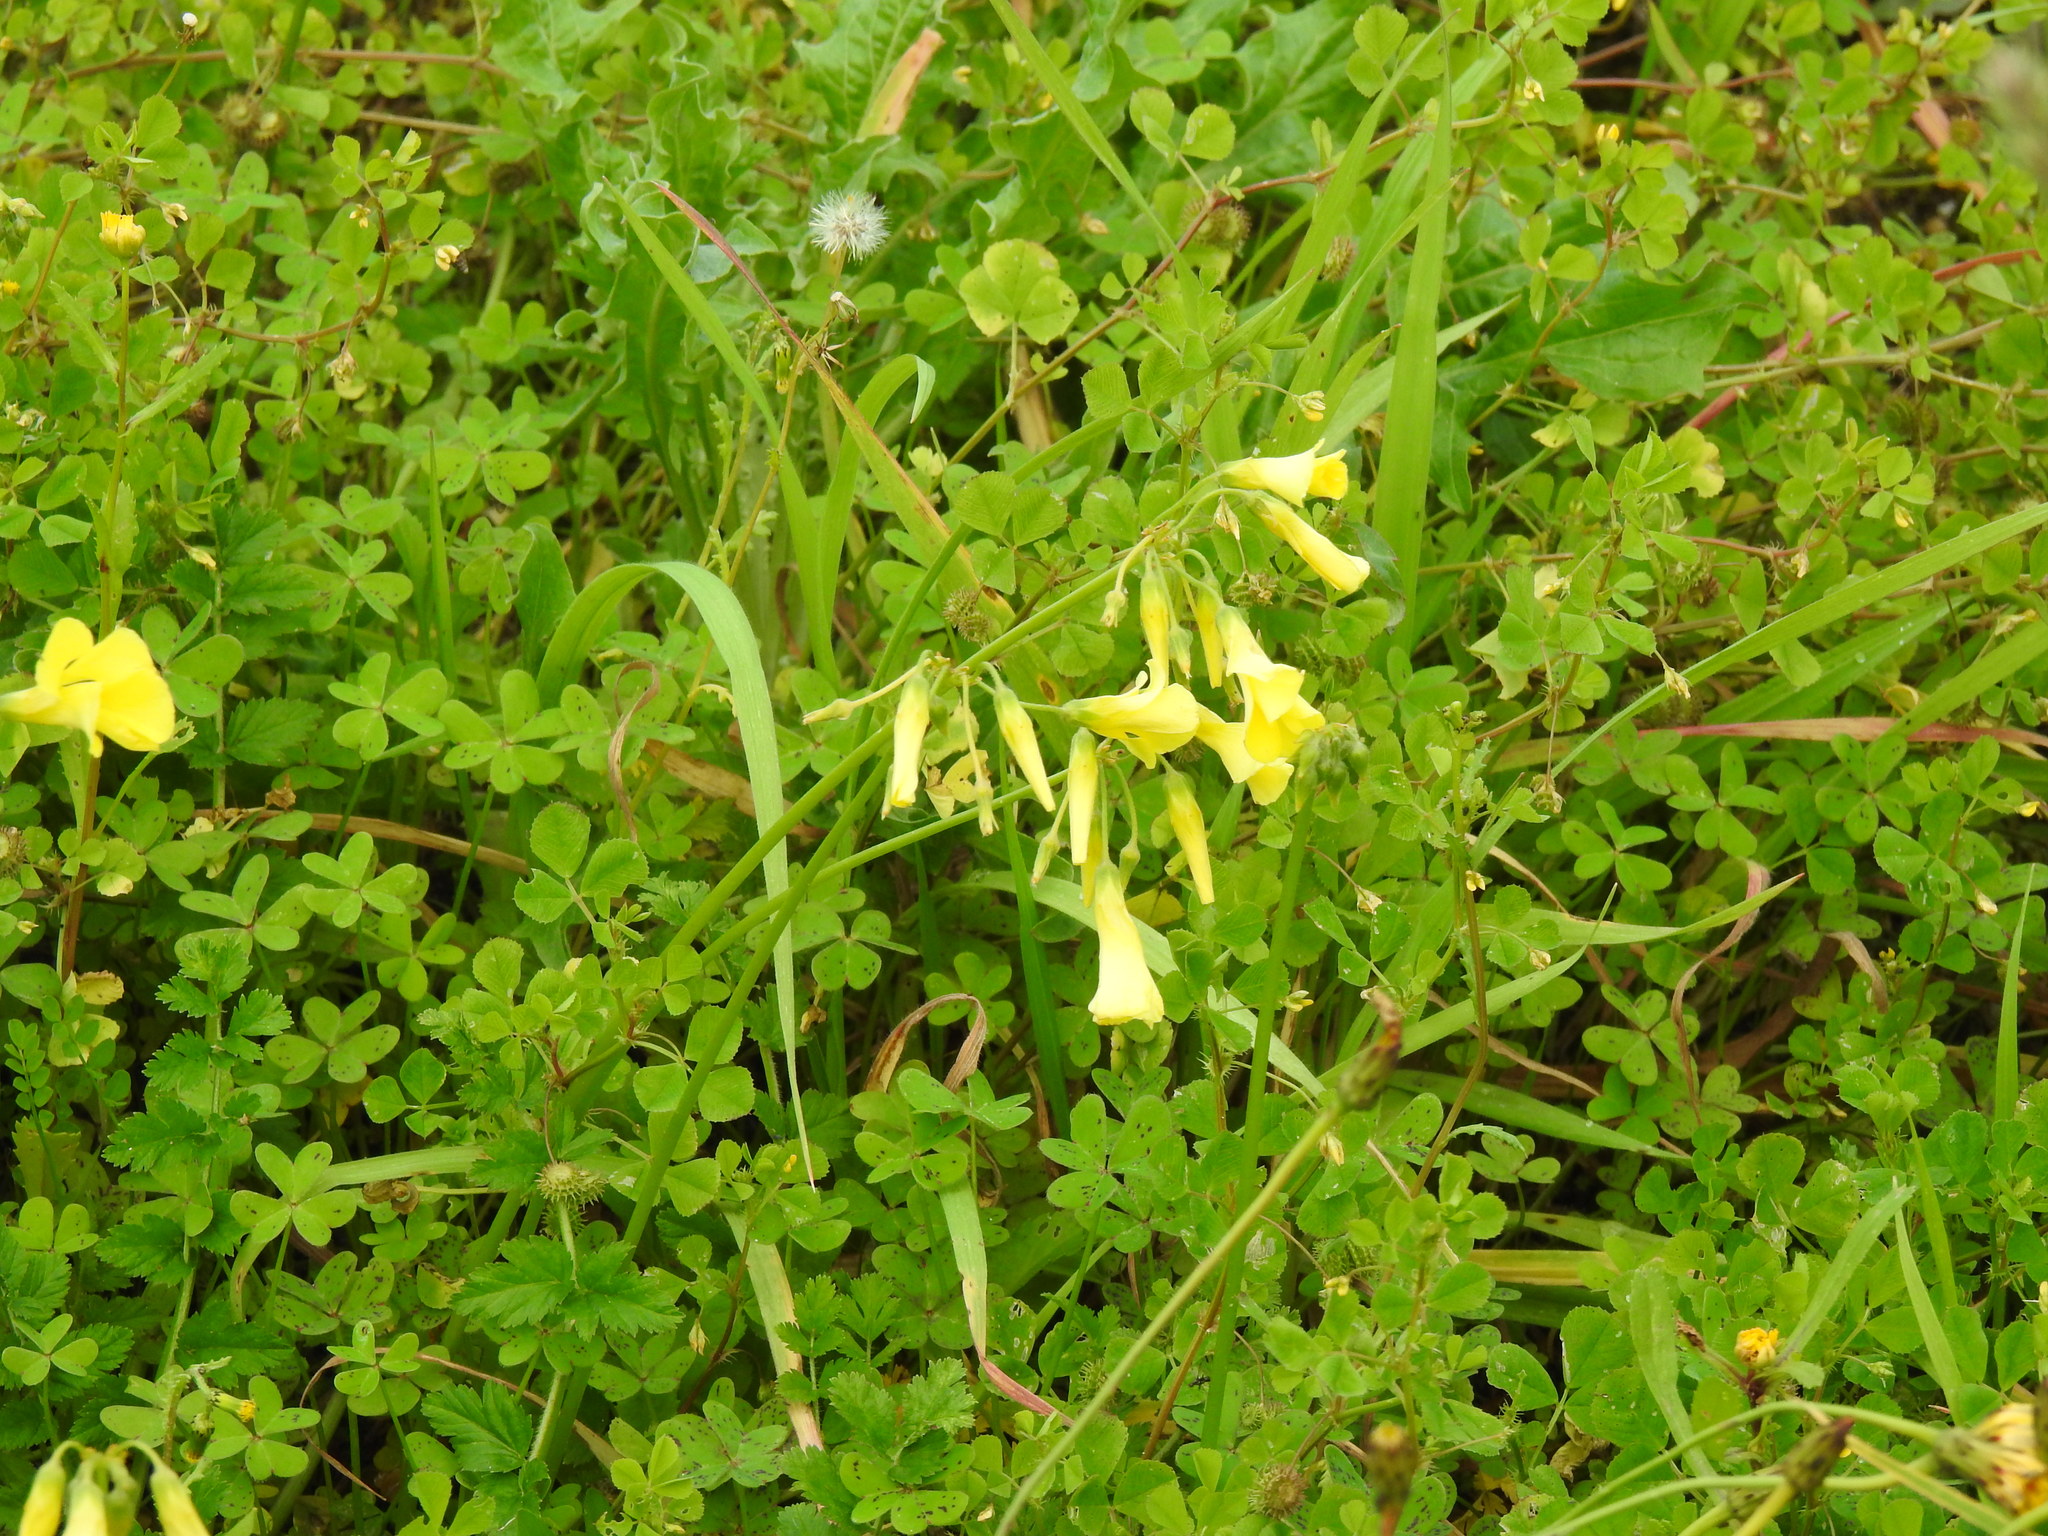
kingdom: Plantae
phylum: Tracheophyta
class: Magnoliopsida
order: Oxalidales
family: Oxalidaceae
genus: Oxalis
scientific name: Oxalis pes-caprae
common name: Bermuda-buttercup
